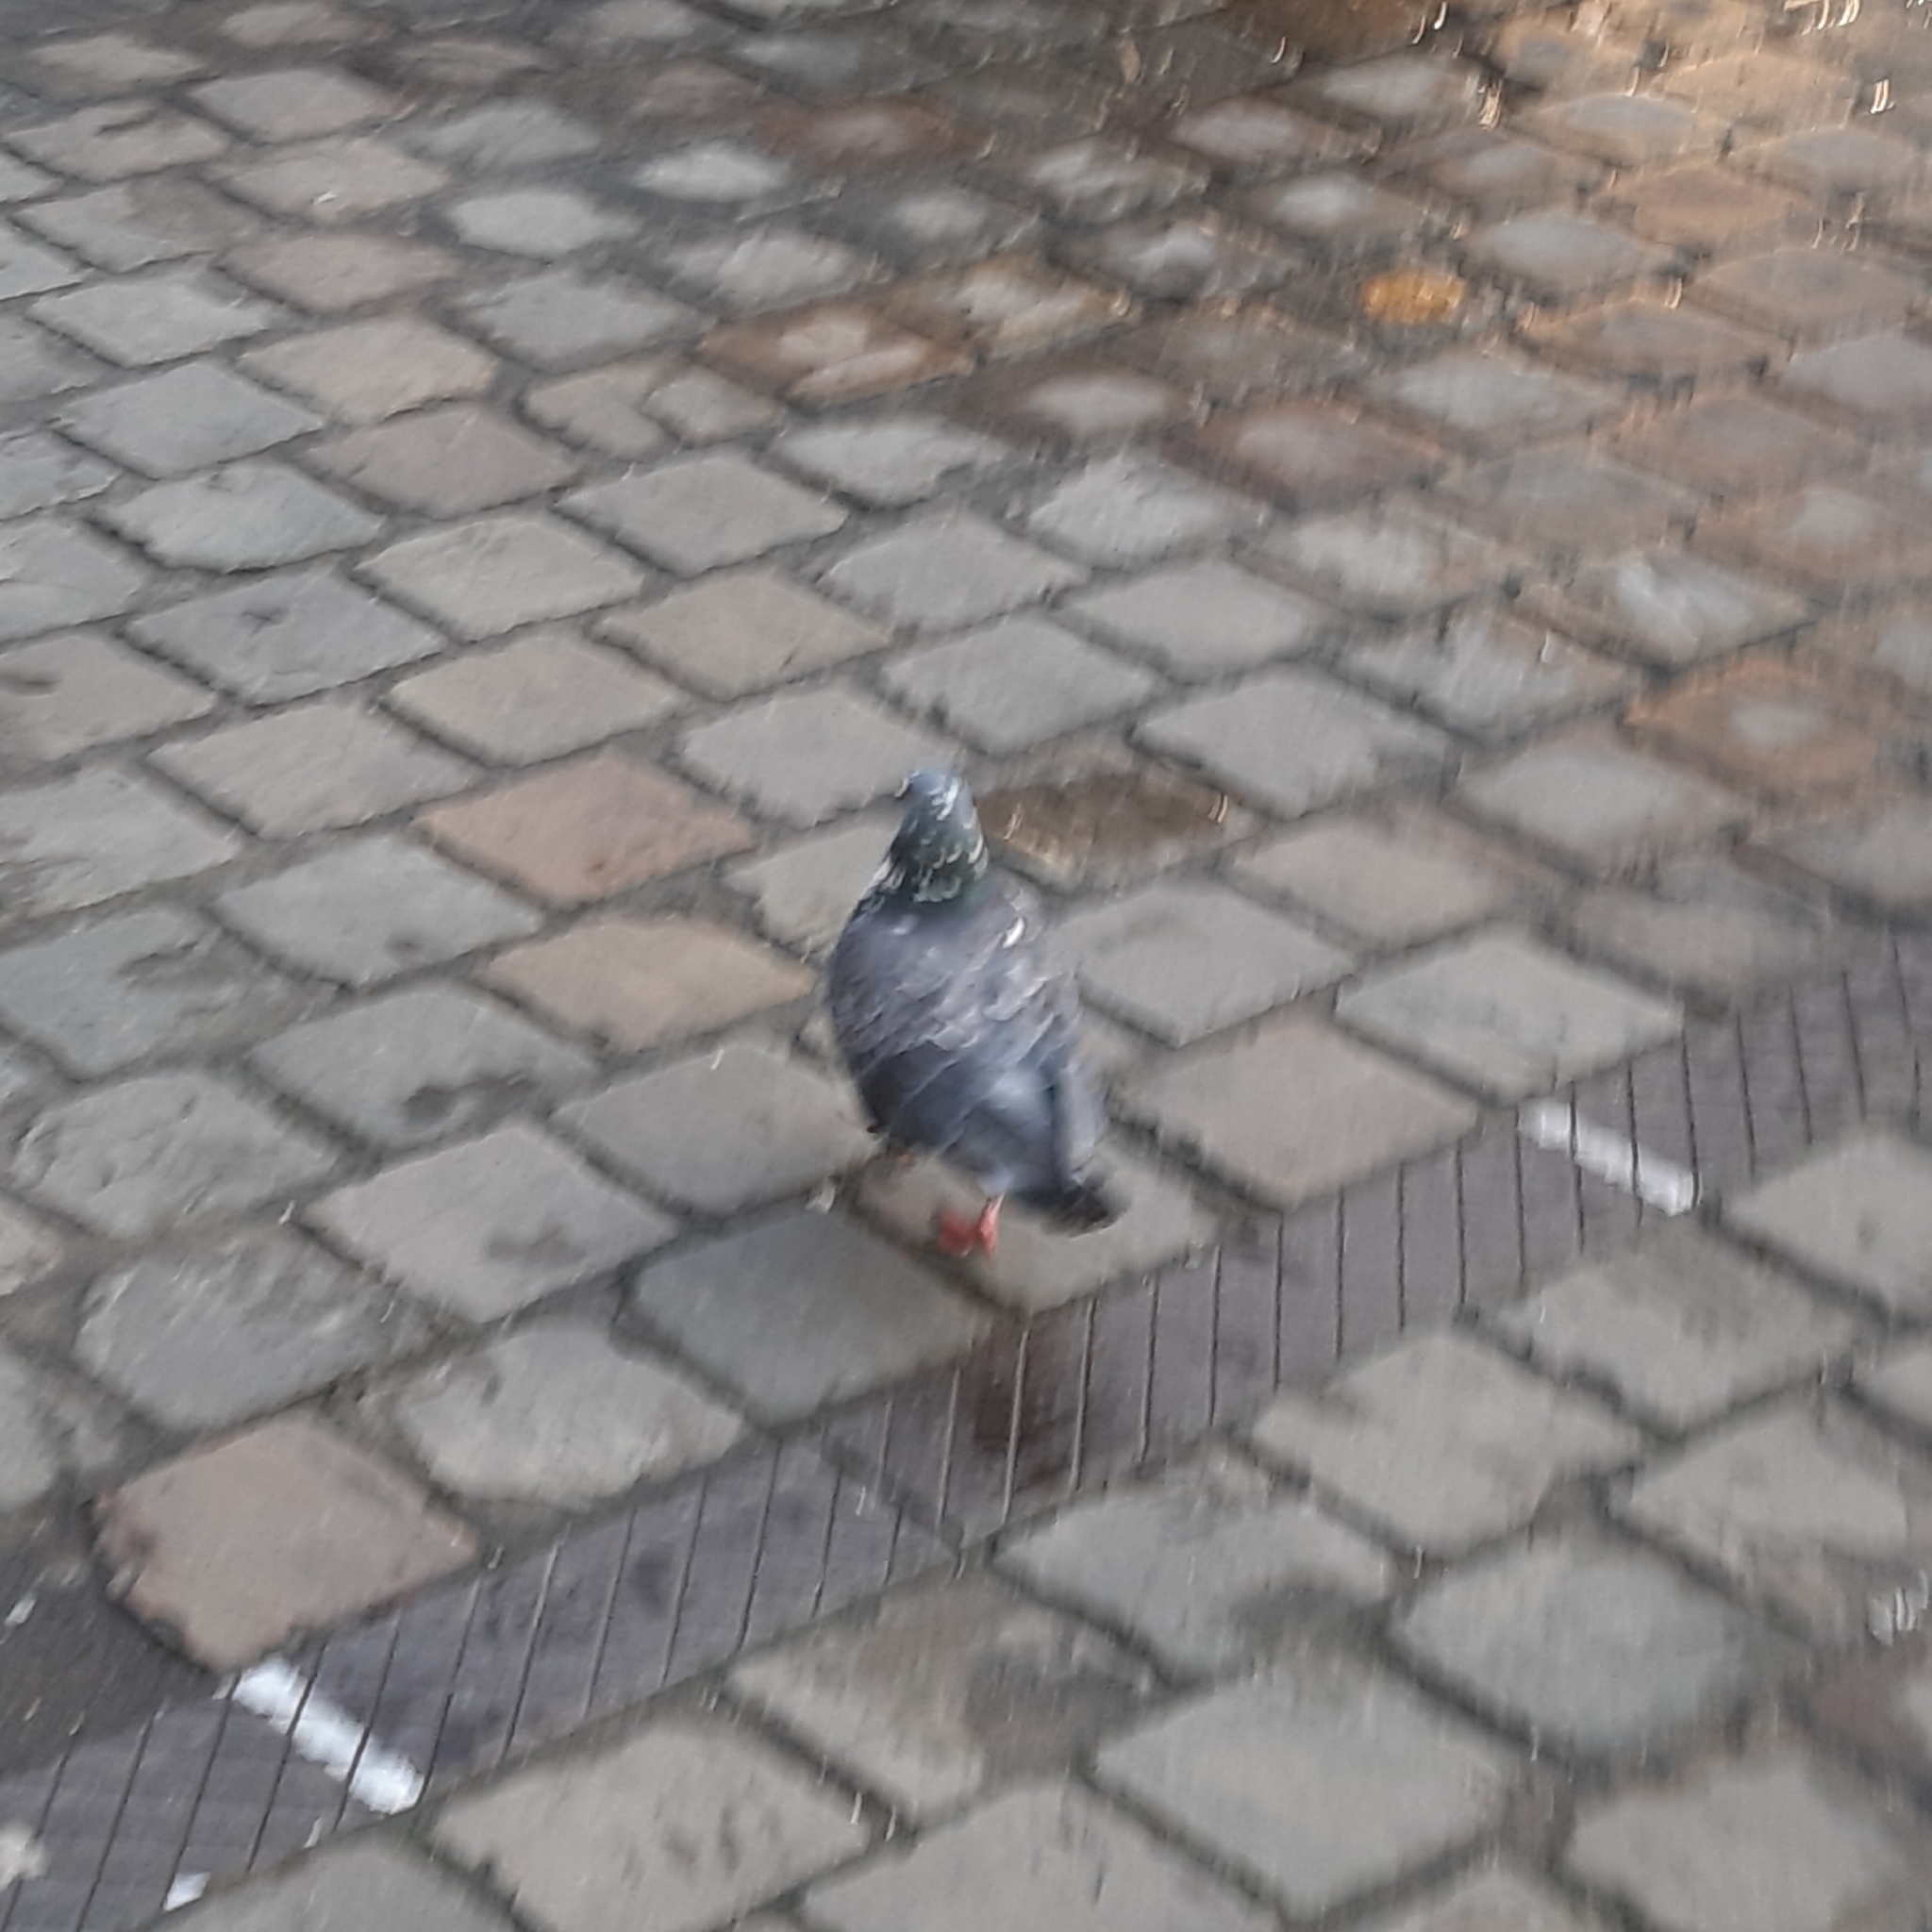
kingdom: Animalia
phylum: Chordata
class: Aves
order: Columbiformes
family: Columbidae
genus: Columba
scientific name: Columba livia
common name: Rock pigeon
